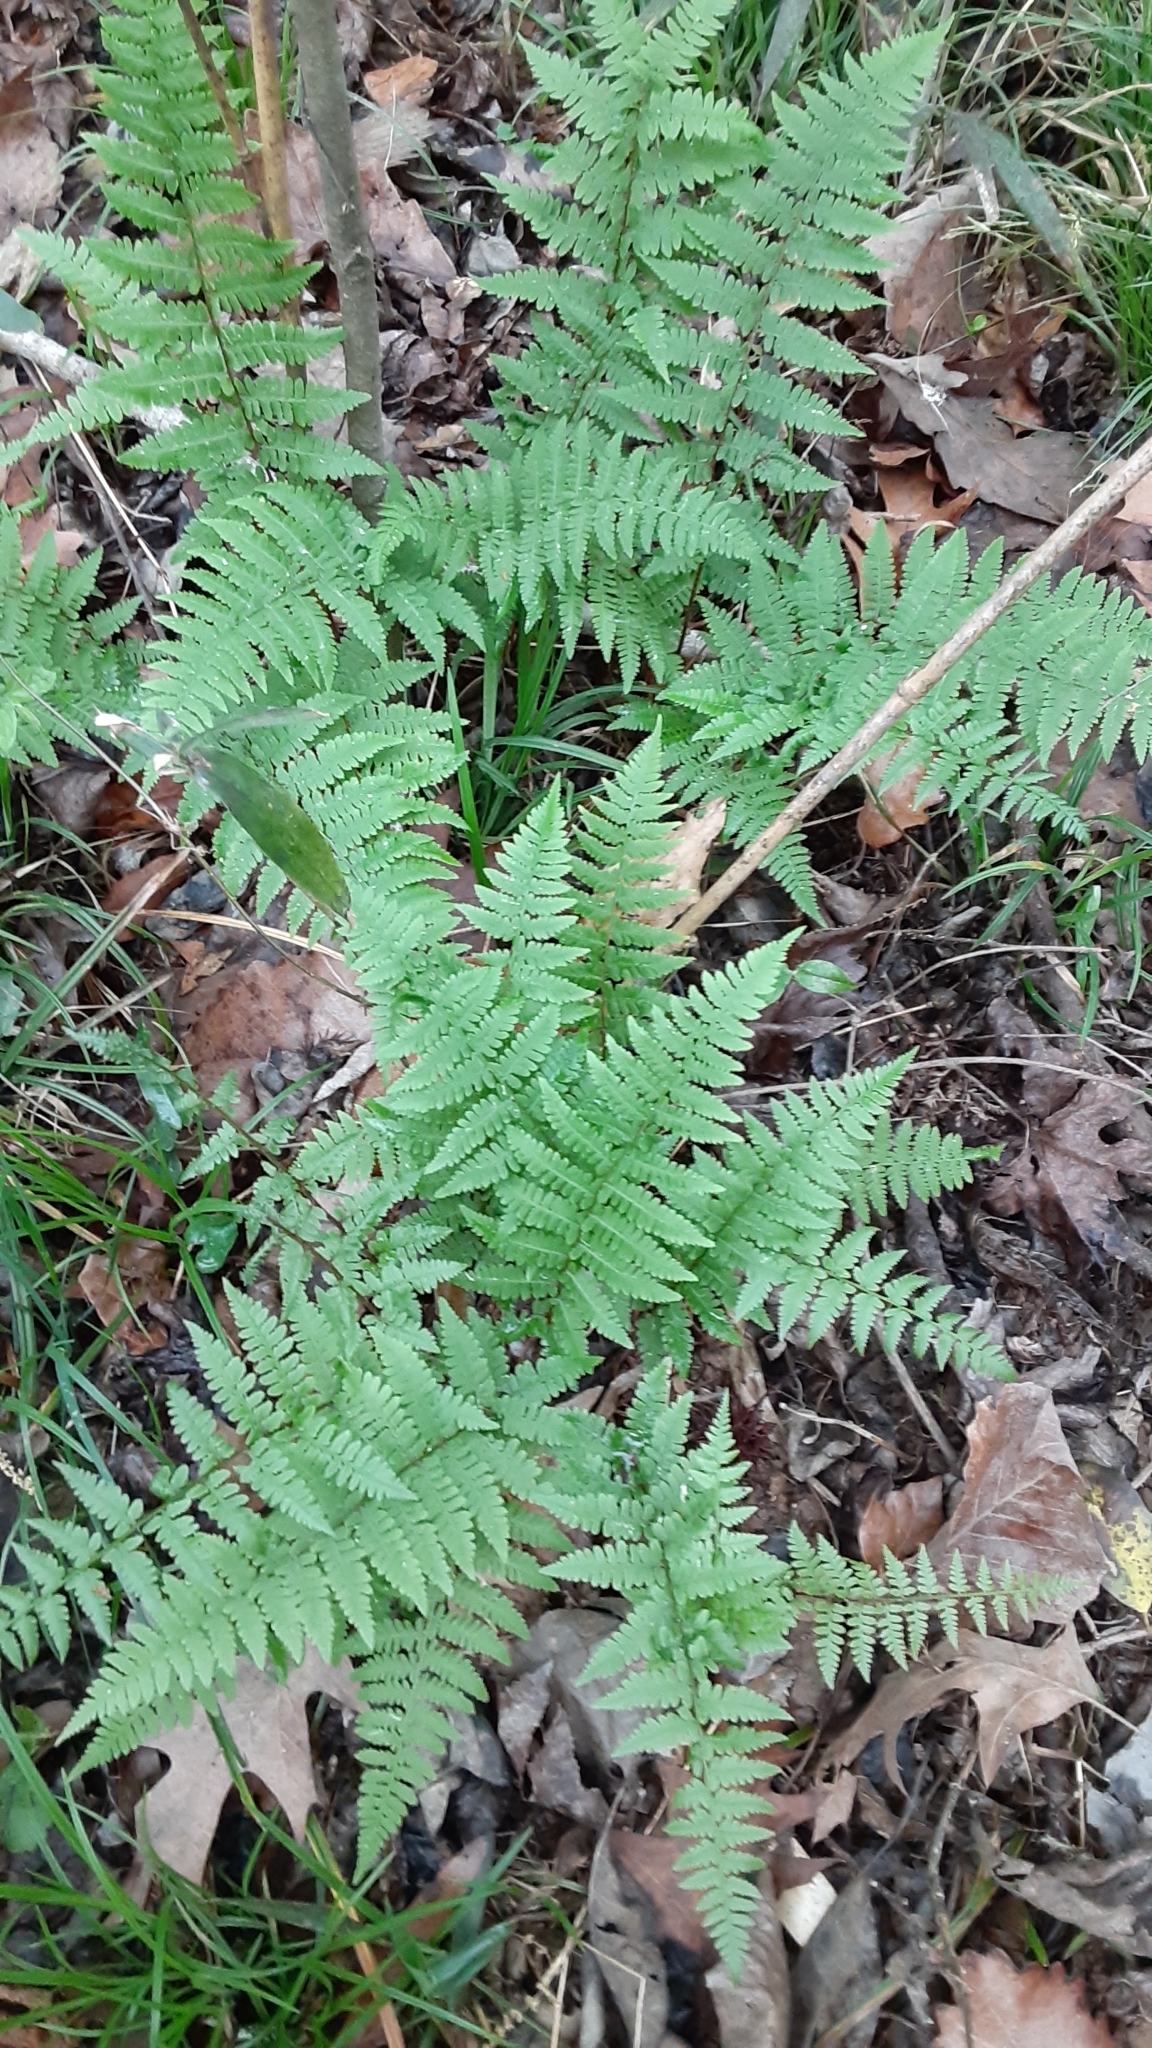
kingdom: Plantae
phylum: Tracheophyta
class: Polypodiopsida
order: Polypodiales
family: Athyriaceae
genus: Athyrium
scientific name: Athyrium asplenioides
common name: Southern lady fern
